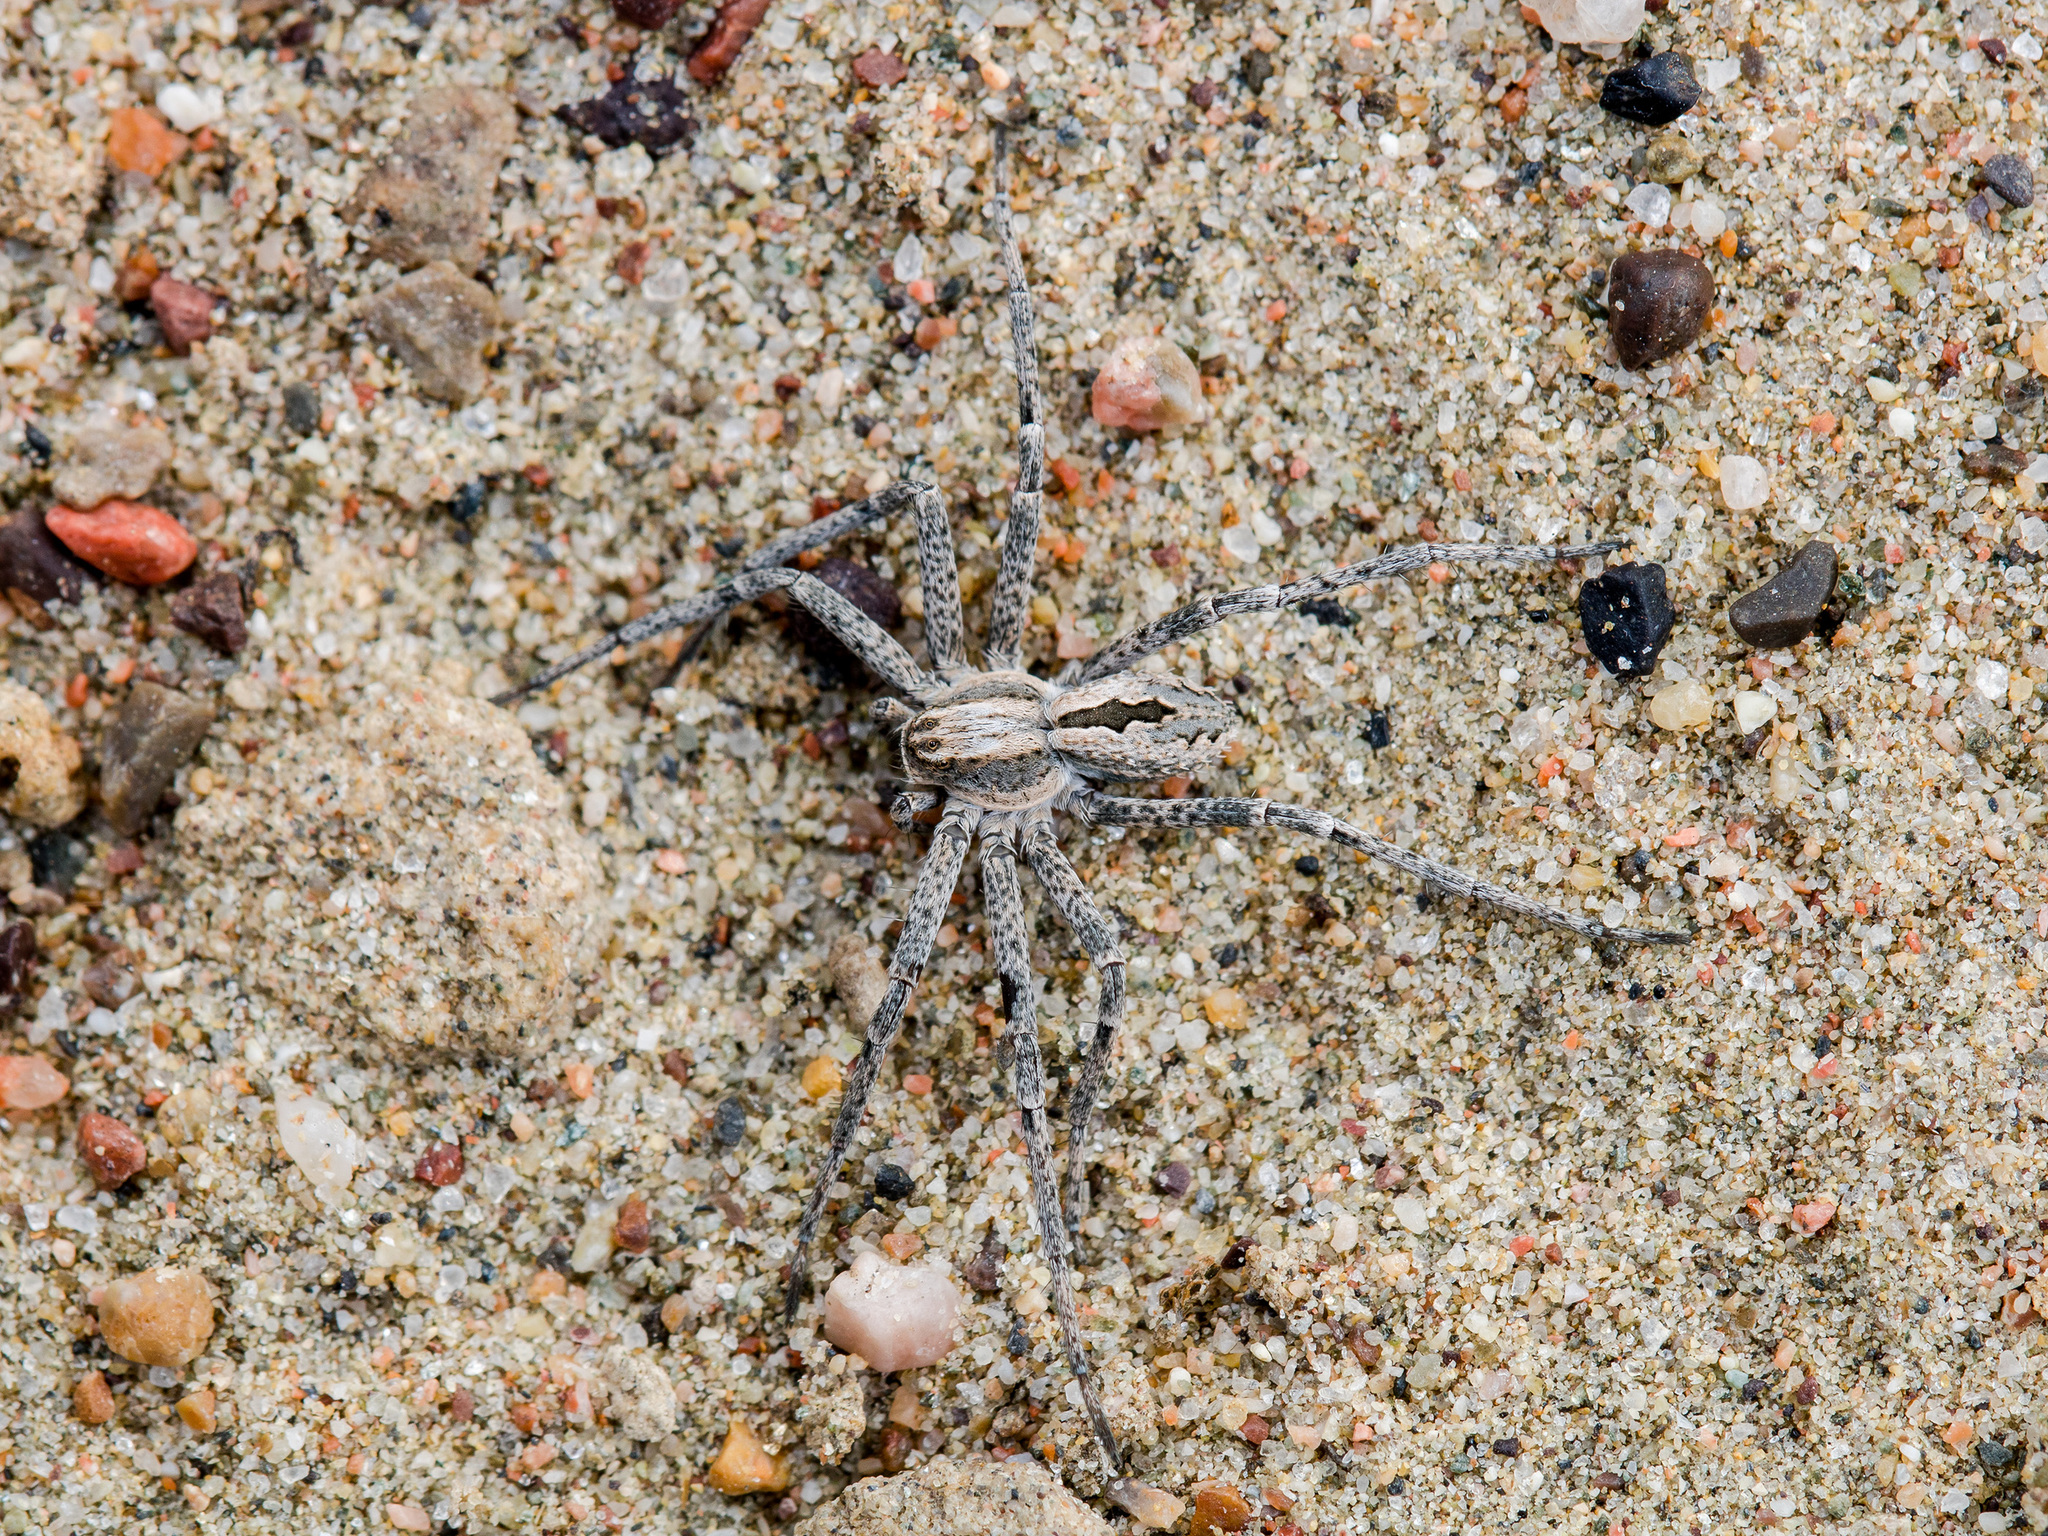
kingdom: Animalia
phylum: Arthropoda
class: Arachnida
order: Araneae
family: Philodromidae
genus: Thanatus
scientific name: Thanatus kitabensis
